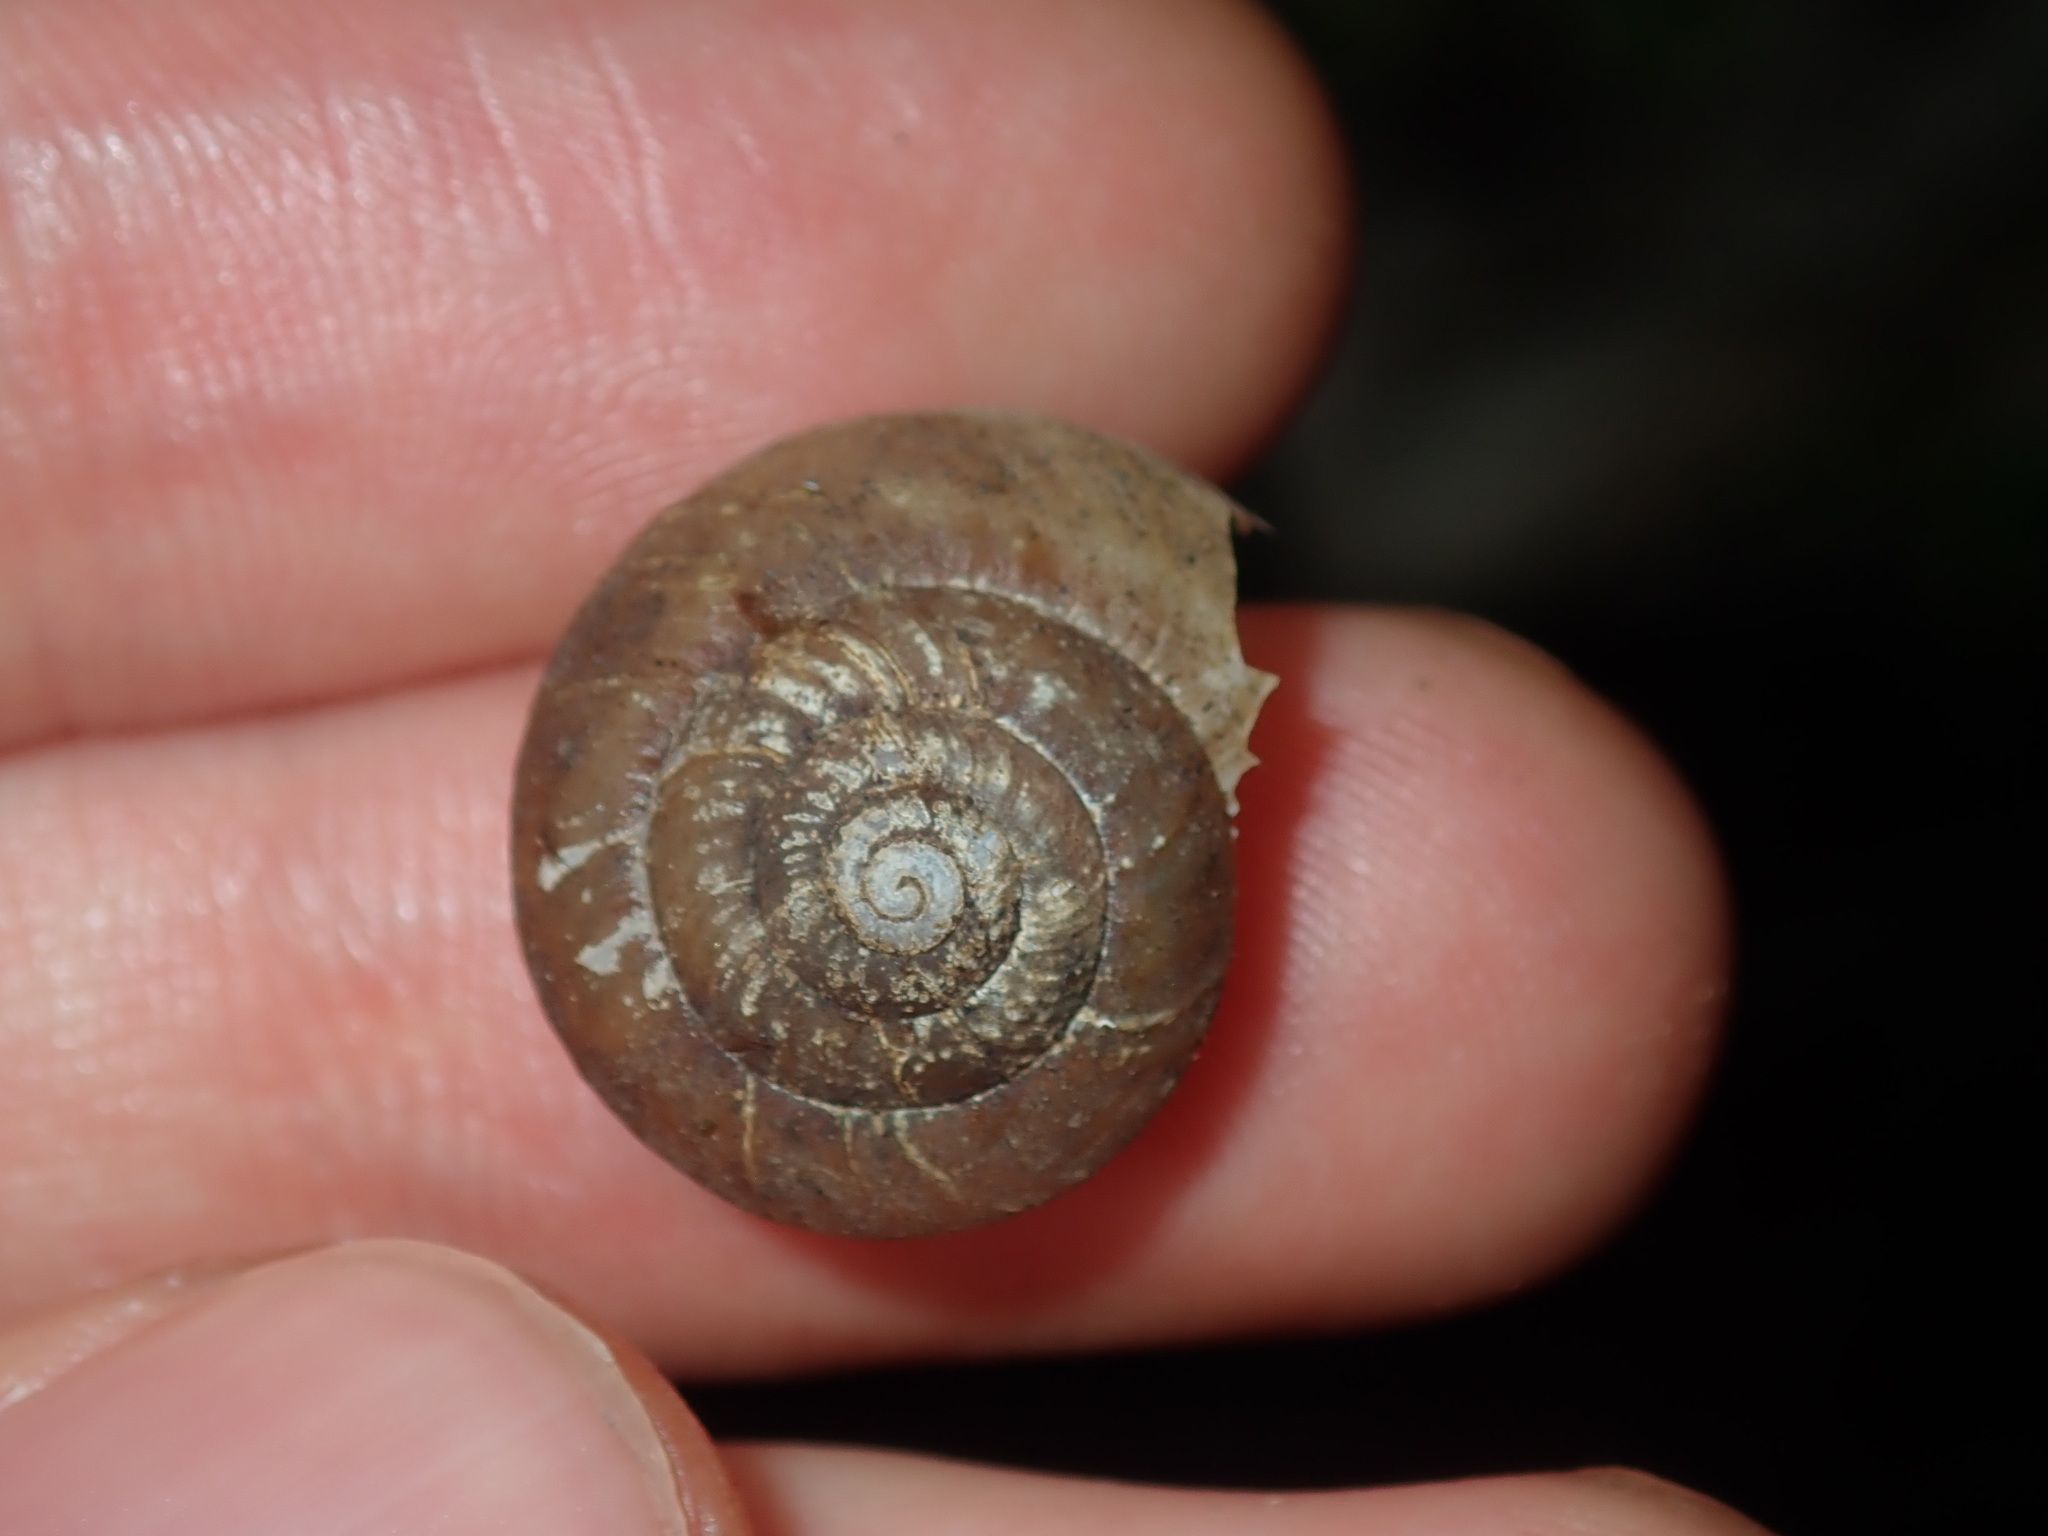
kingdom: Animalia
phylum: Mollusca
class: Gastropoda
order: Stylommatophora
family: Camaenidae
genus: Sauroconcha
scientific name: Sauroconcha sheai
